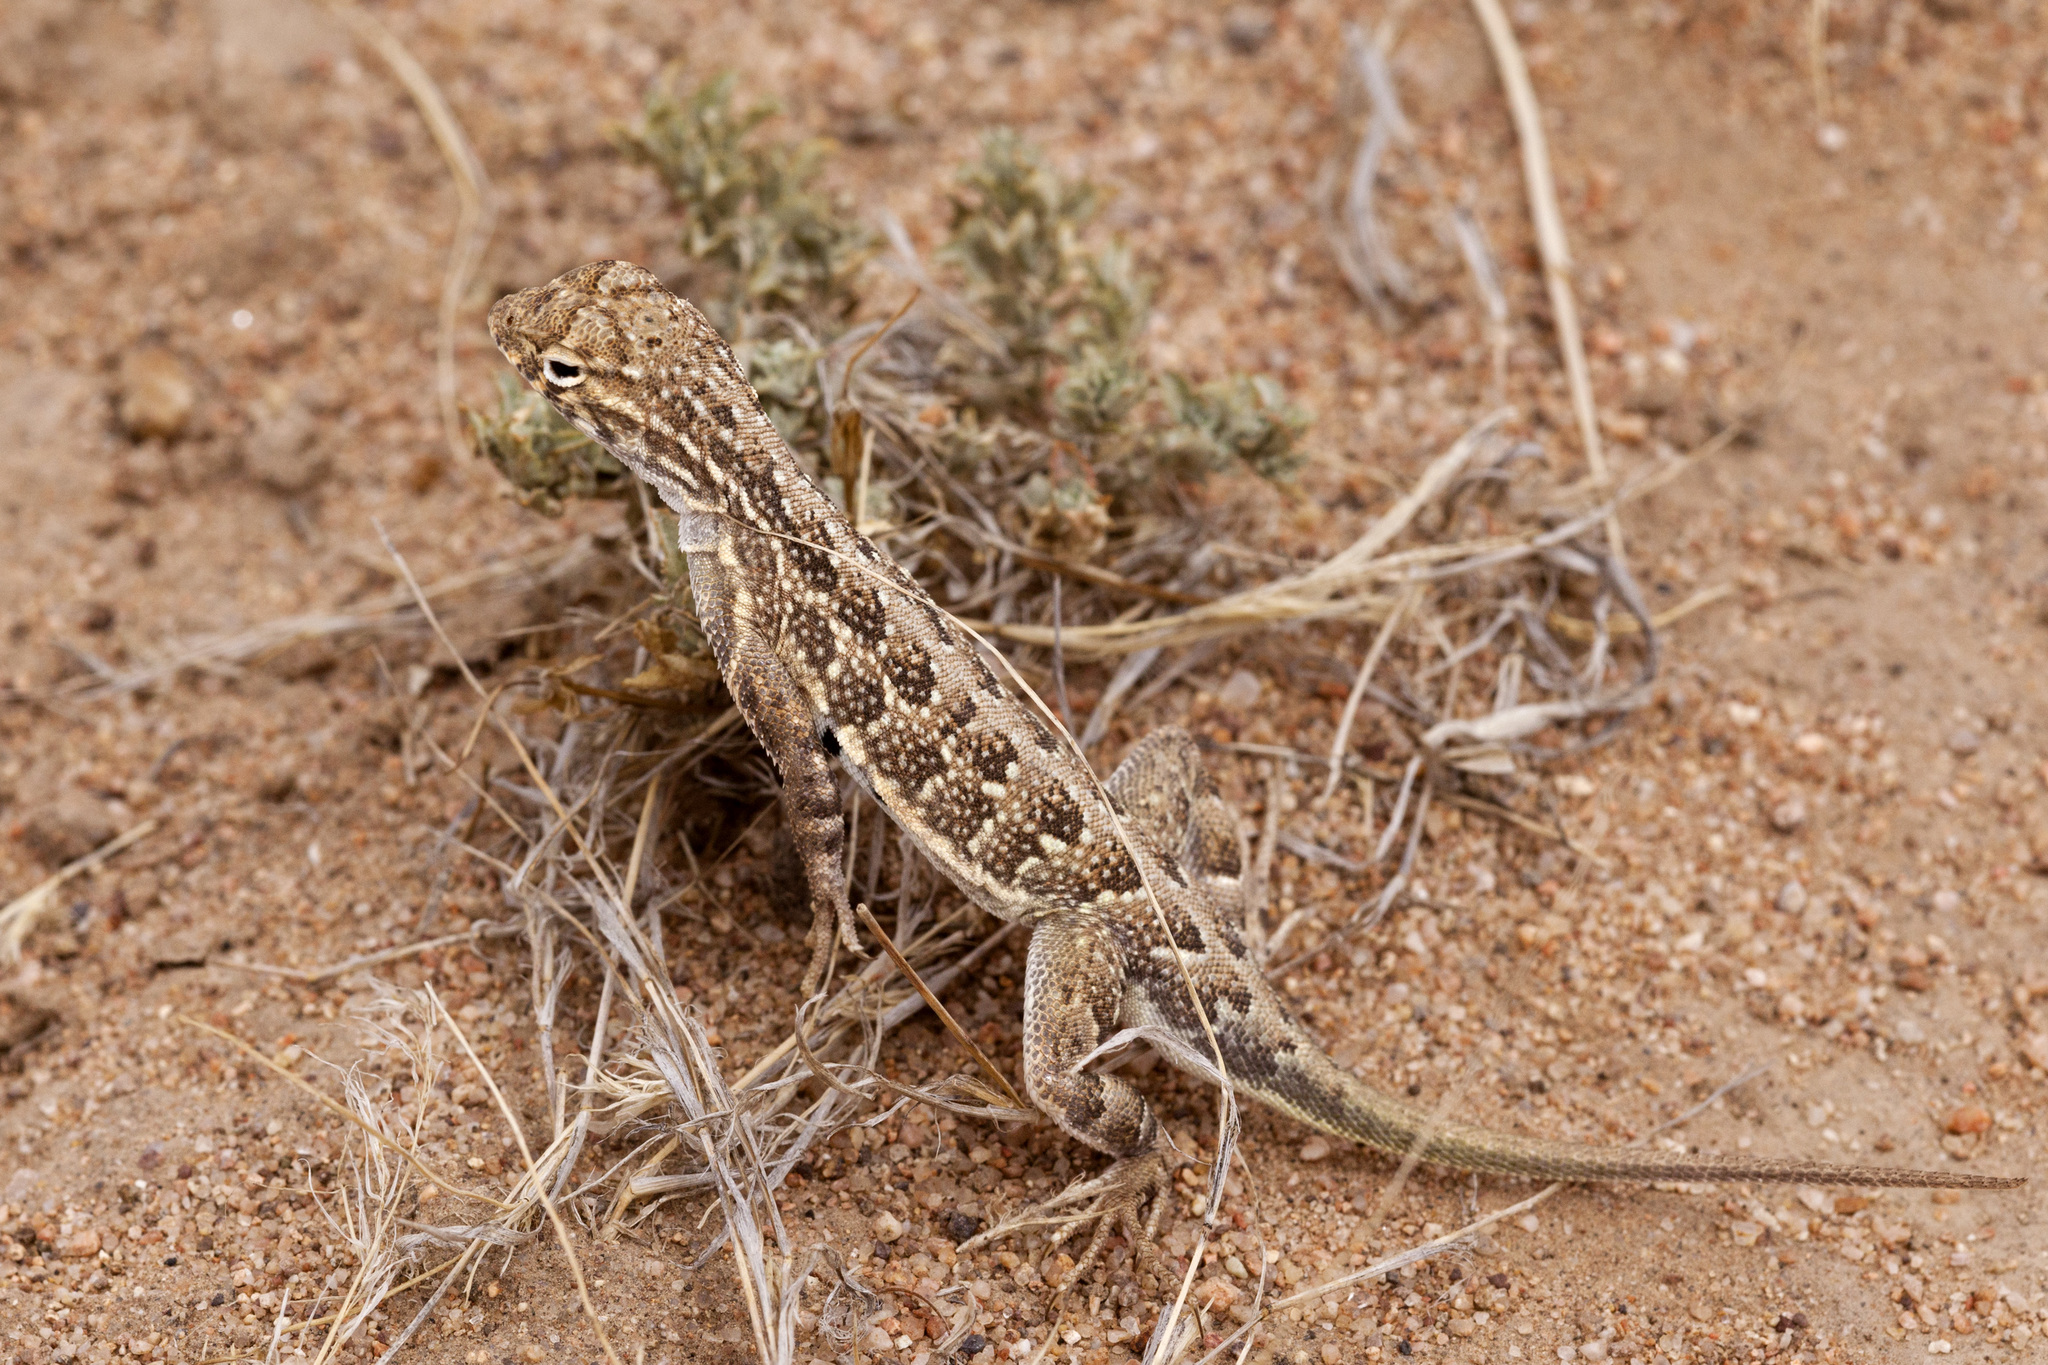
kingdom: Animalia
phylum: Chordata
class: Squamata
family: Phrynosomatidae
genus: Holbrookia
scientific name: Holbrookia maculata
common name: Lesser earless lizard
